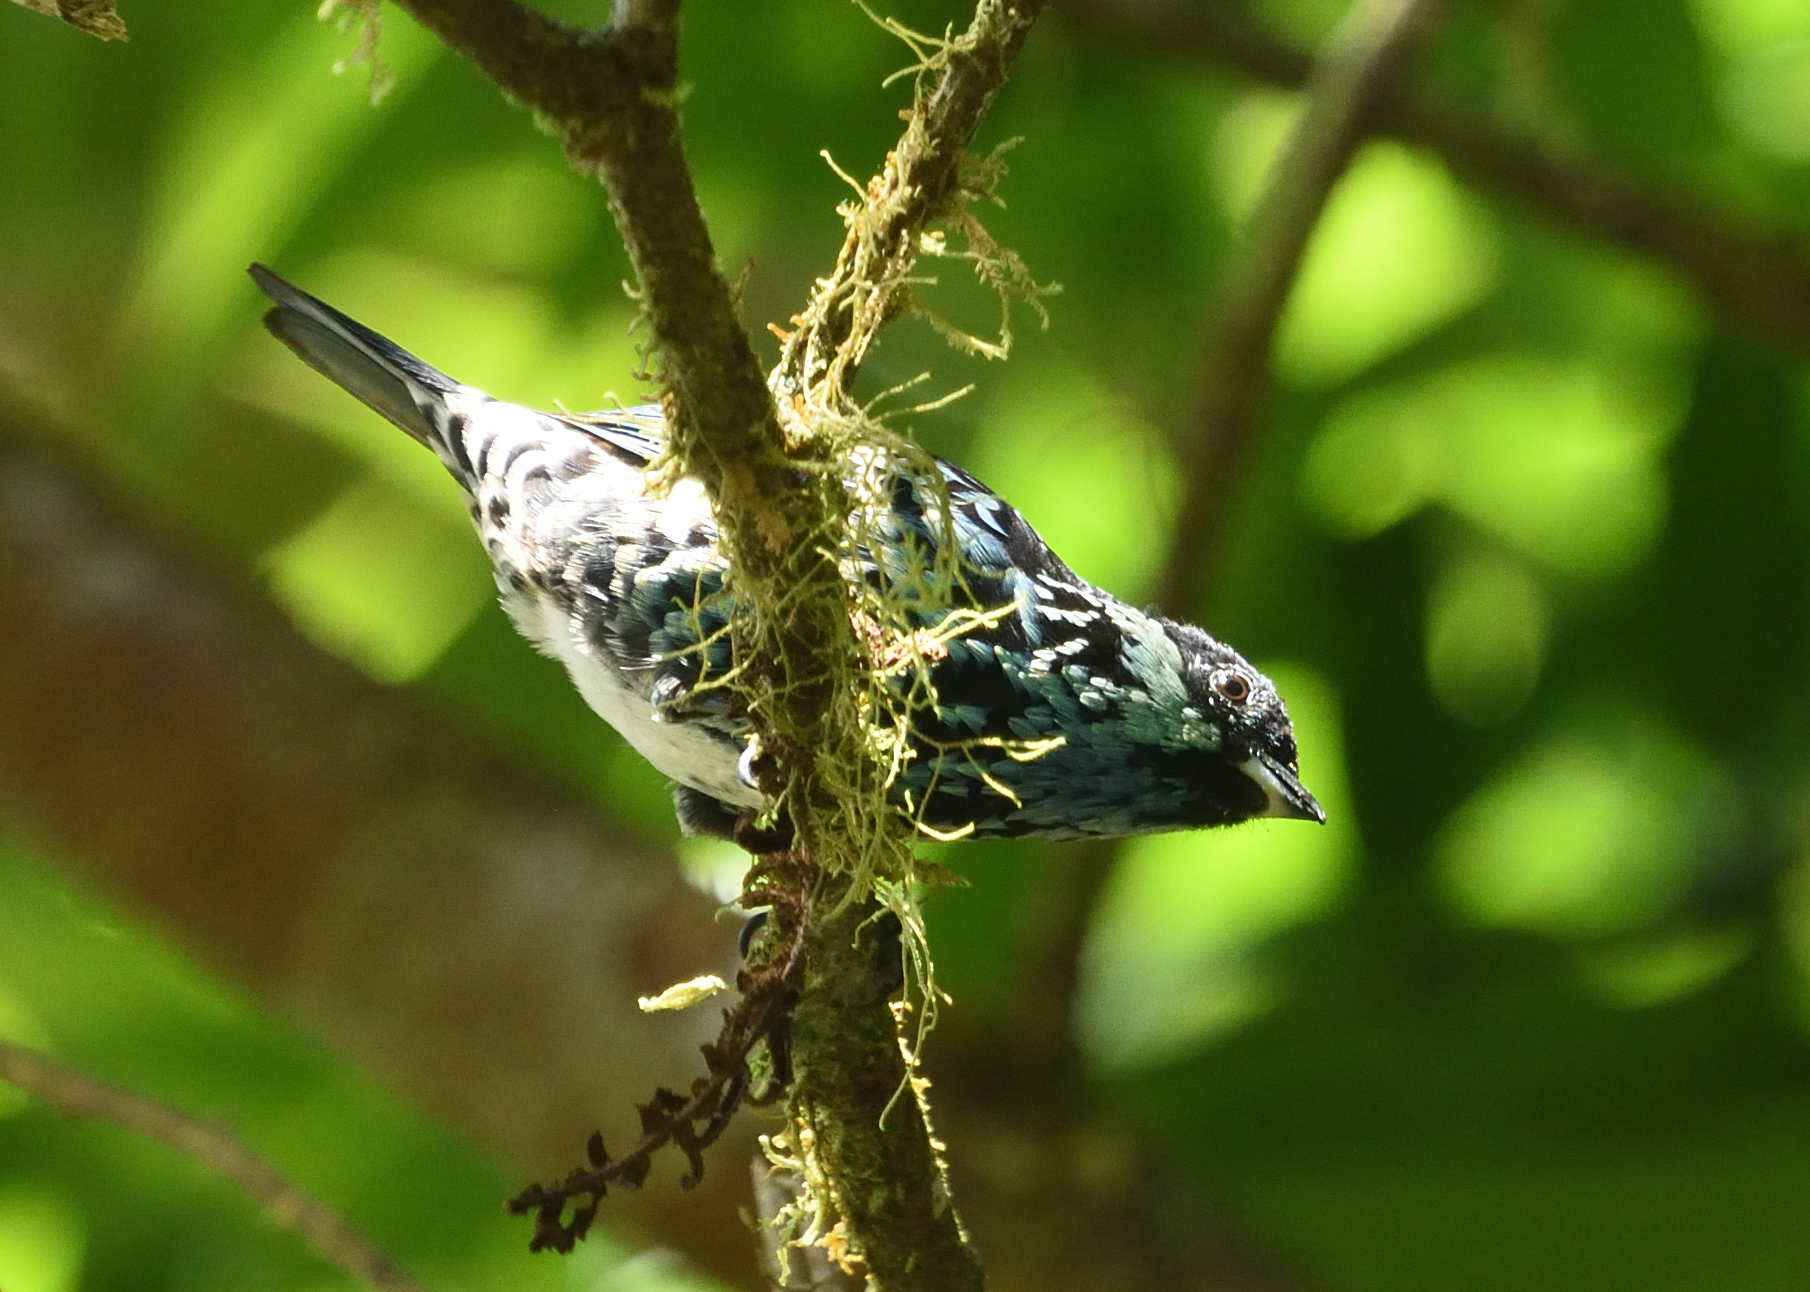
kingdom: Animalia
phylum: Chordata
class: Aves
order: Passeriformes
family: Thraupidae
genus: Tangara
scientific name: Tangara nigroviridis
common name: Beryl-spangled tanager
